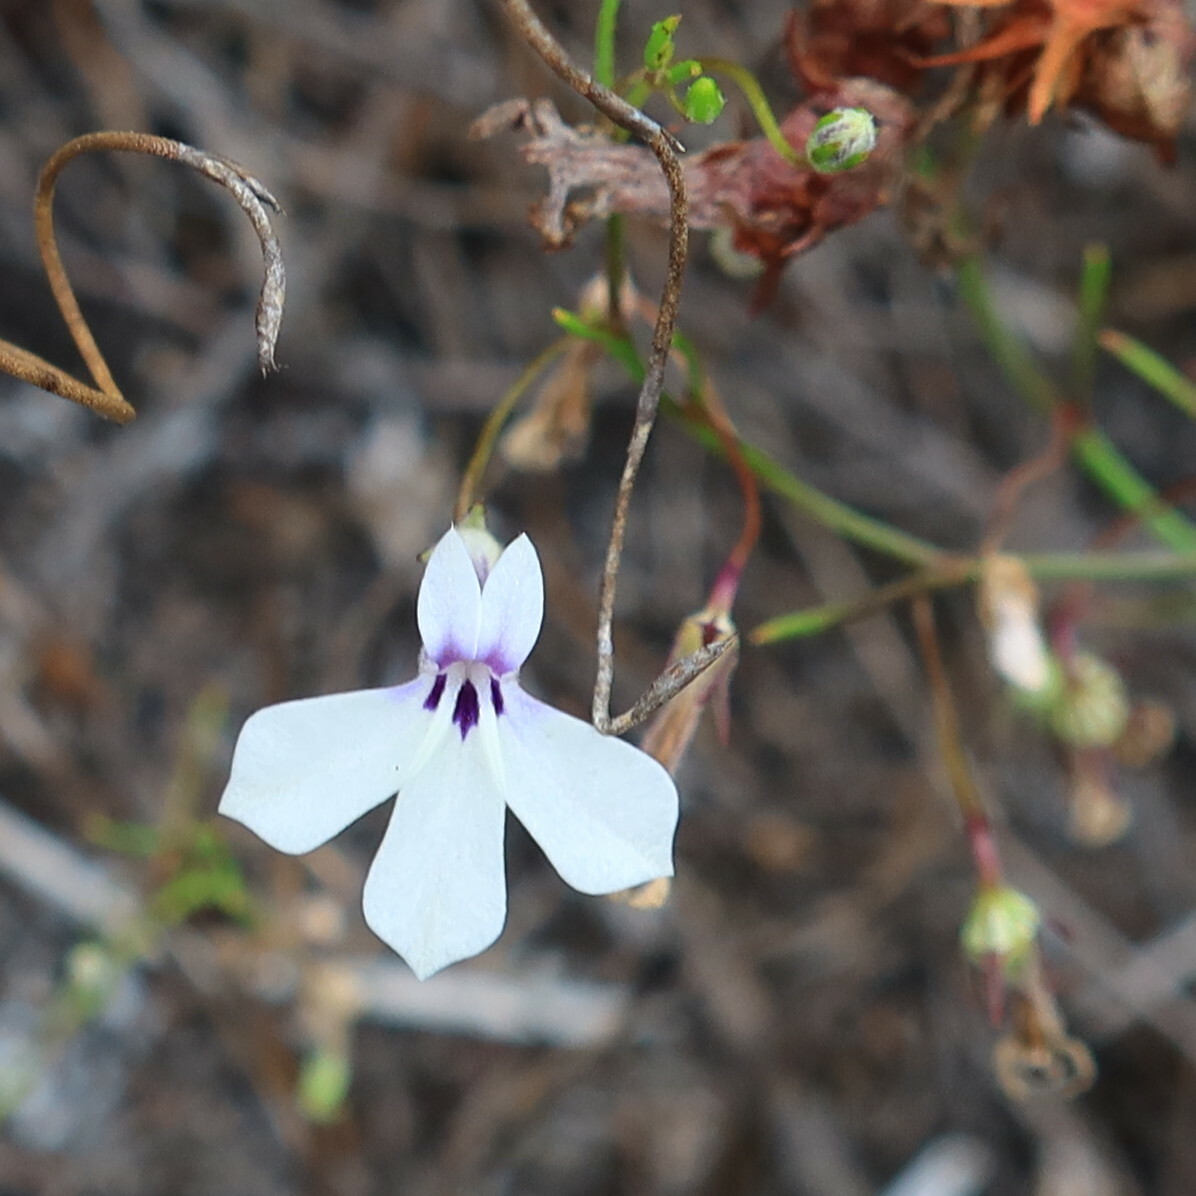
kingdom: Plantae
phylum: Tracheophyta
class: Magnoliopsida
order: Asterales
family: Campanulaceae
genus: Lobelia
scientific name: Lobelia setacea
